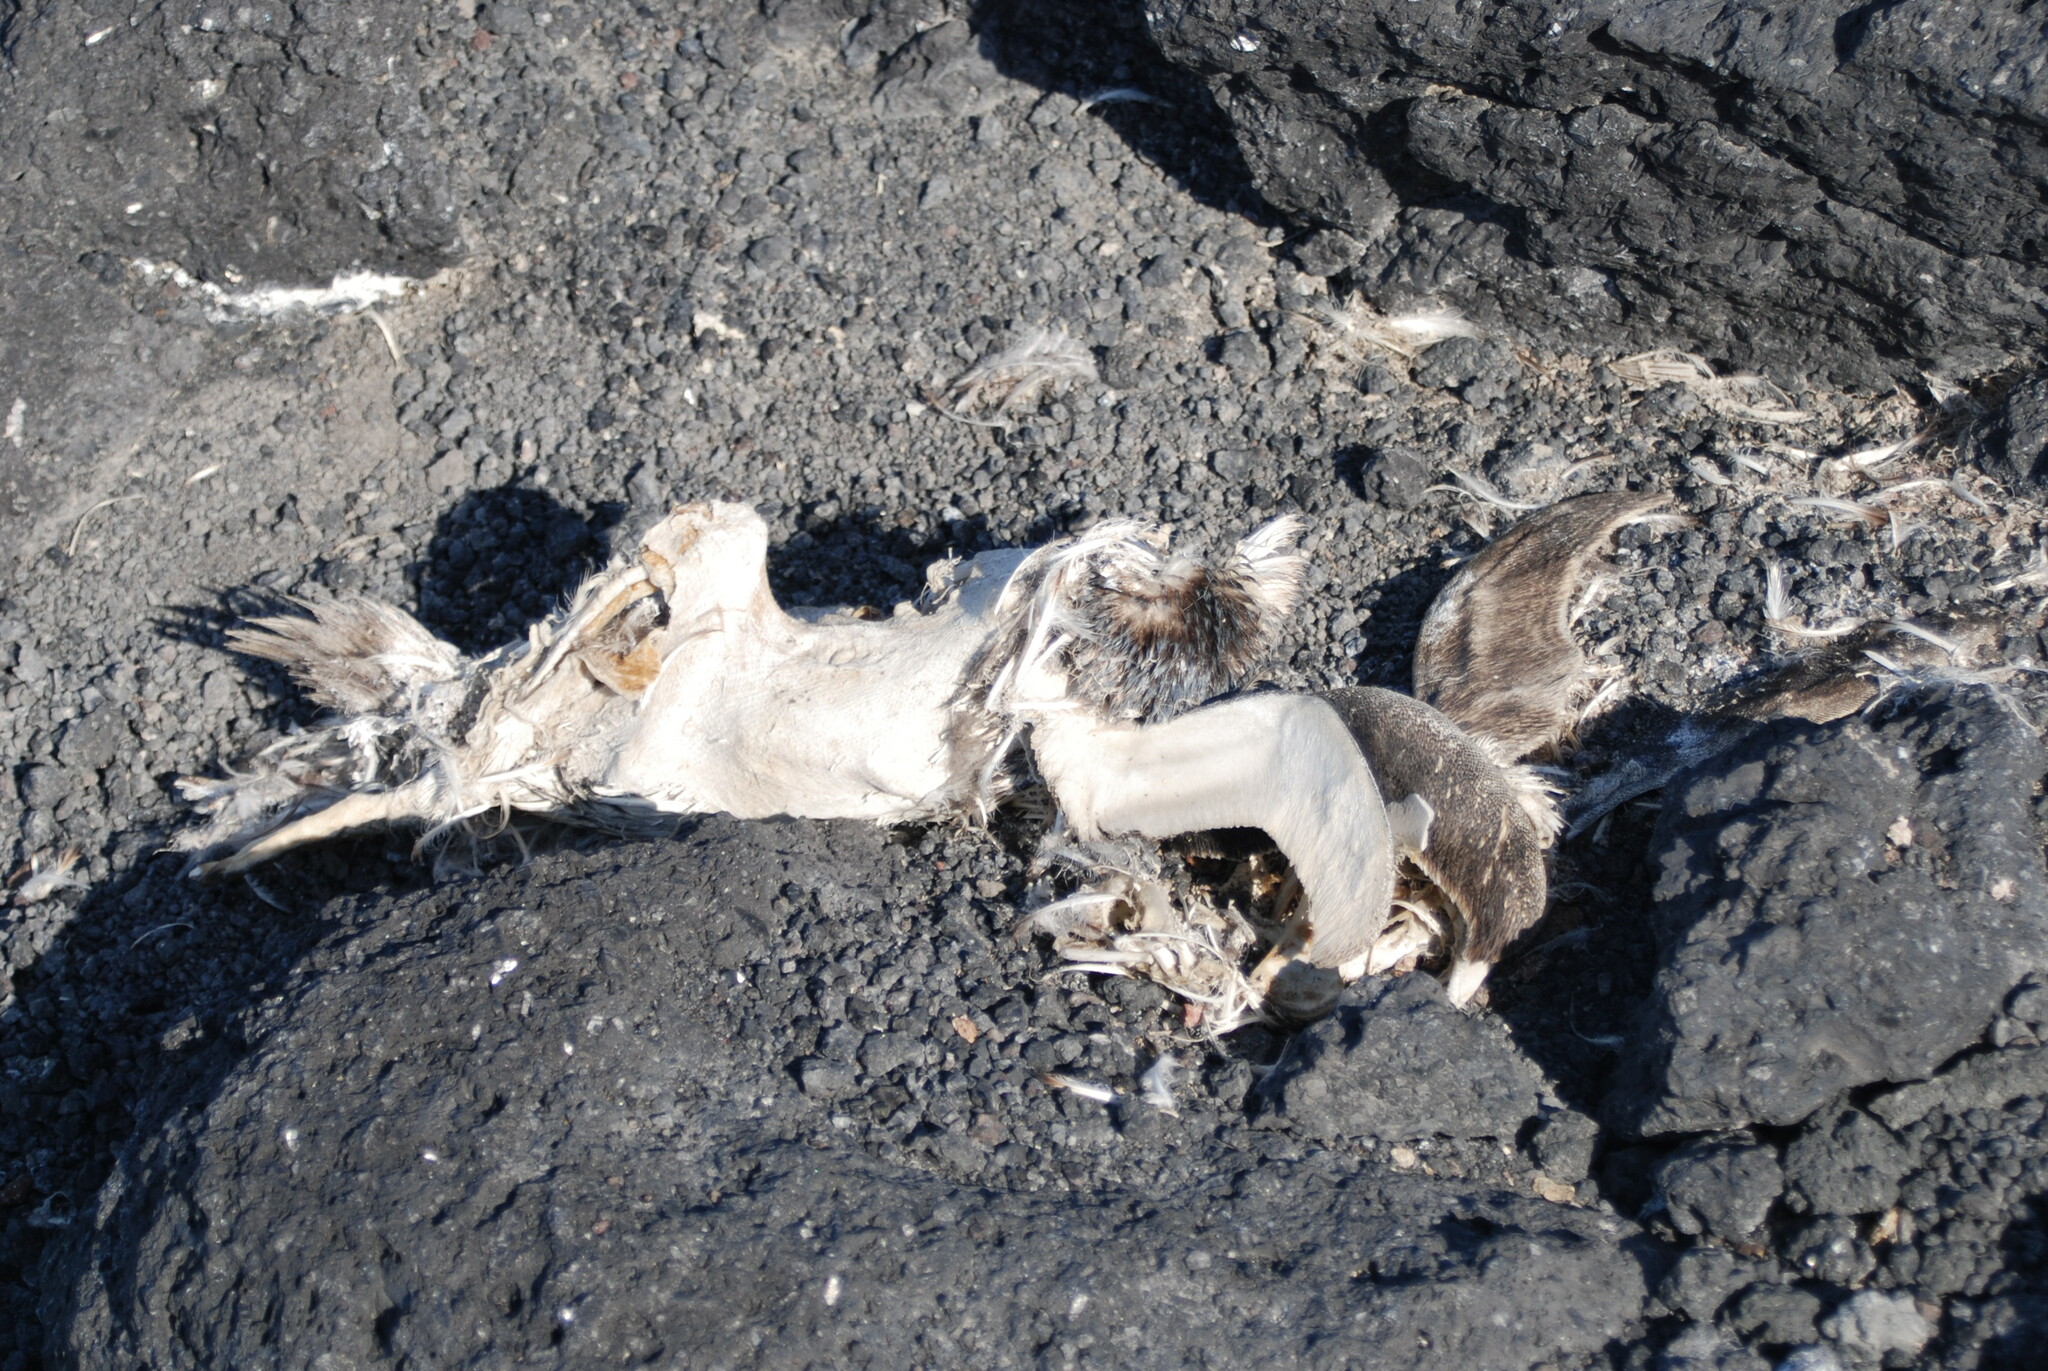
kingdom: Animalia
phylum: Chordata
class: Aves
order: Sphenisciformes
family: Spheniscidae
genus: Pygoscelis
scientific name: Pygoscelis adeliae
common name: Adelie penguin
